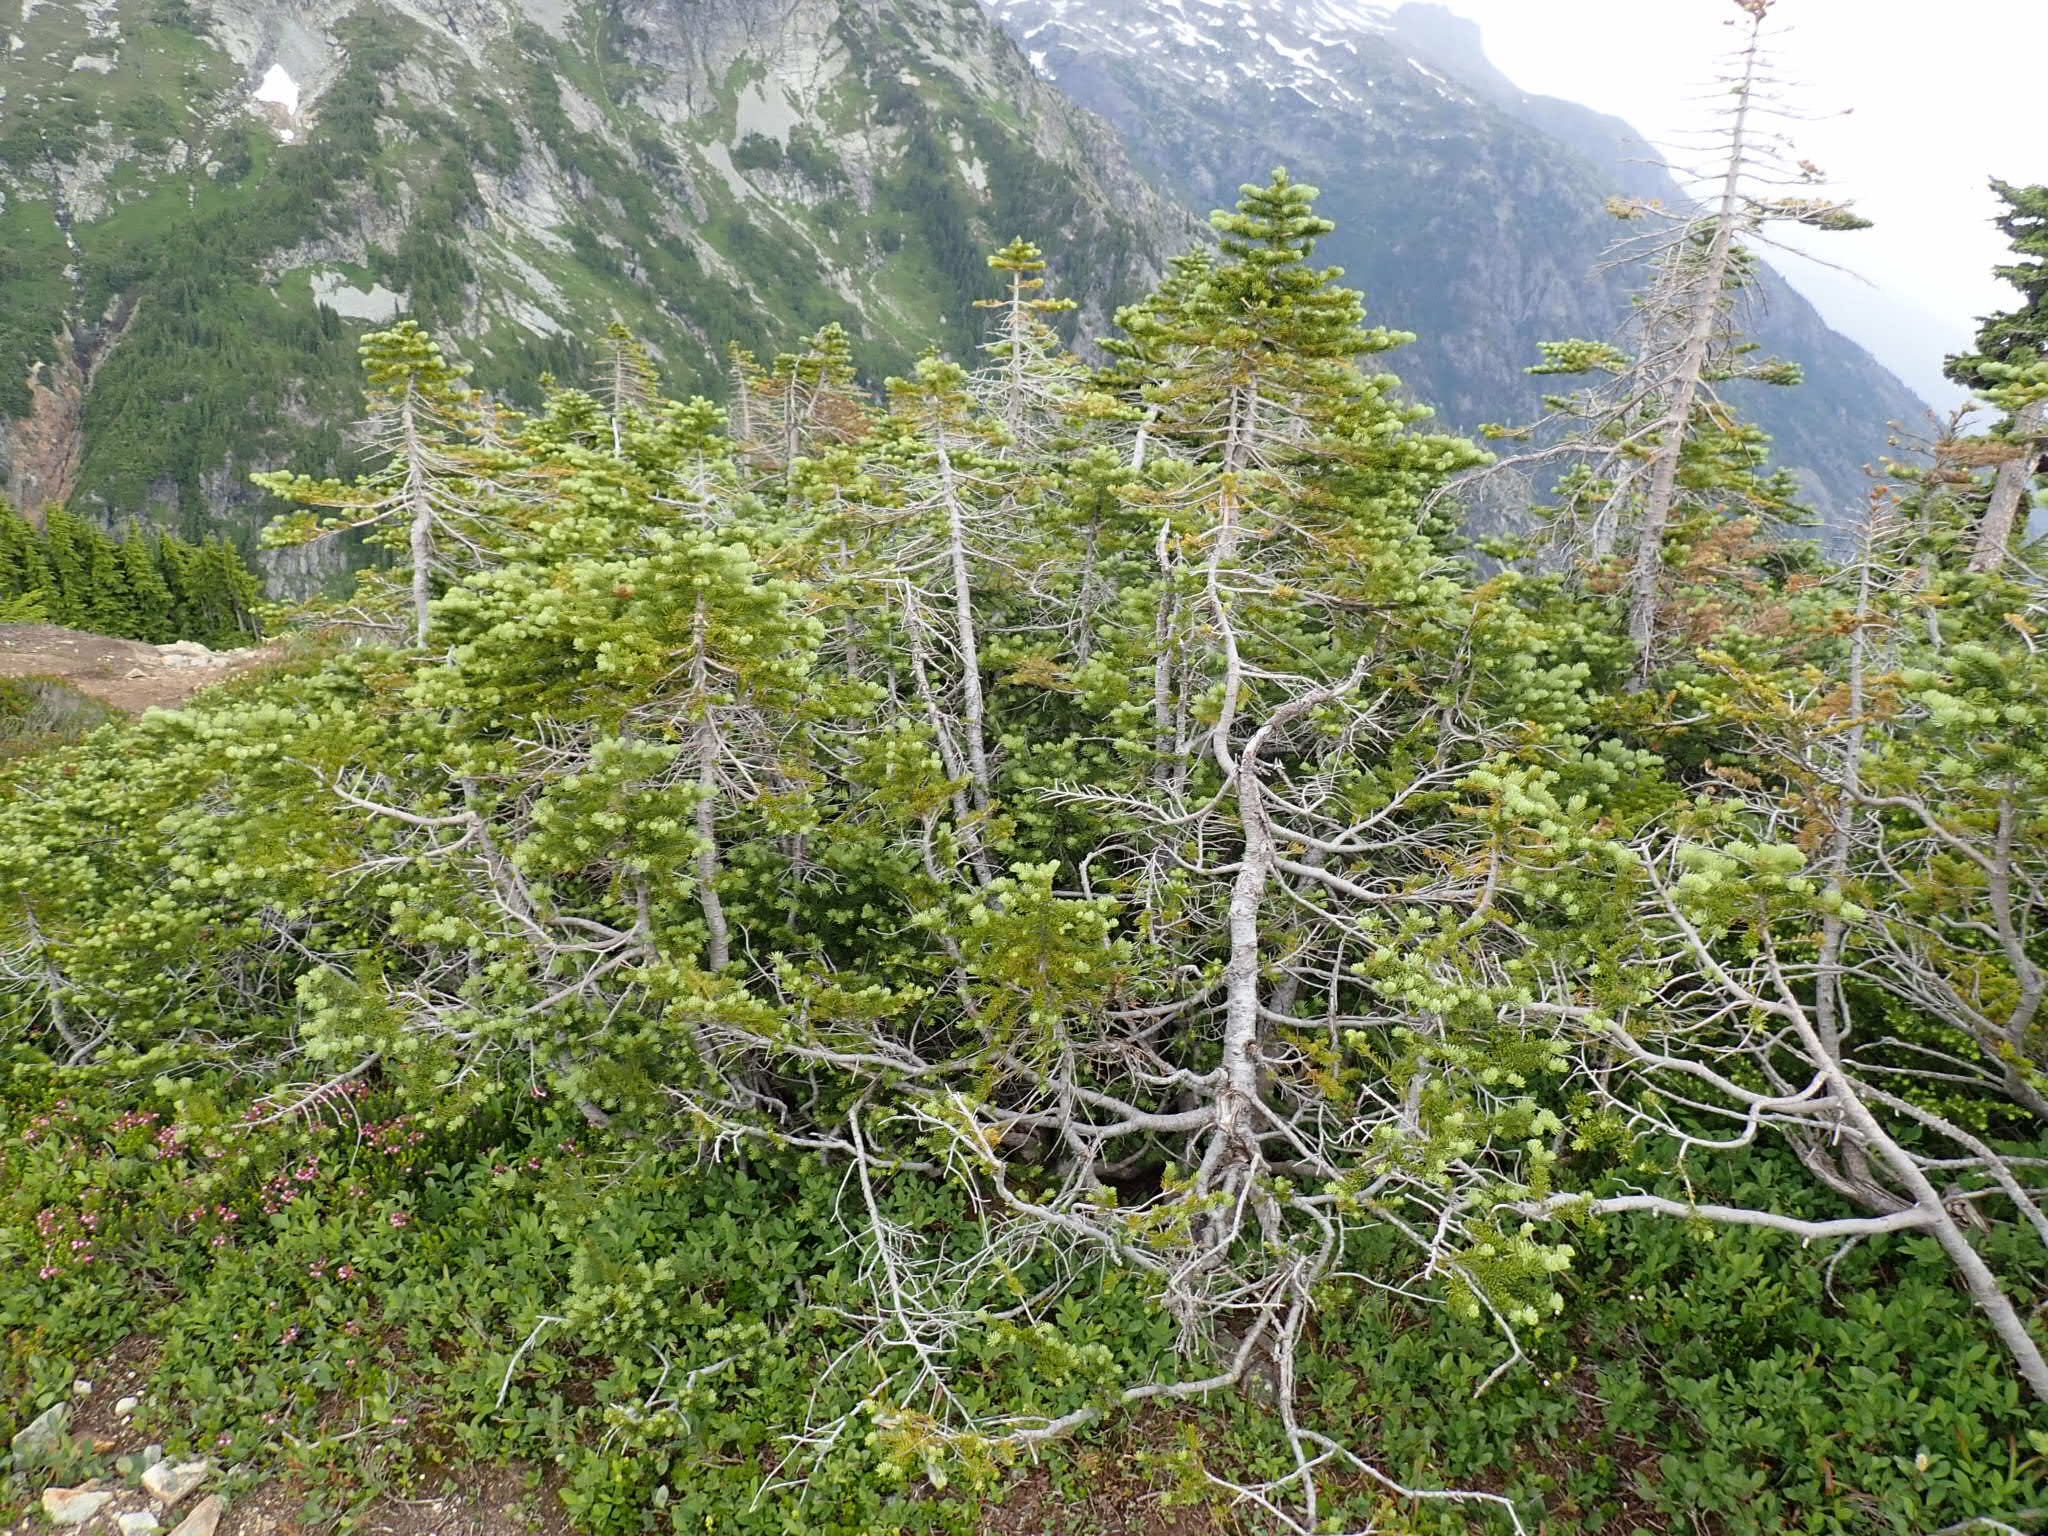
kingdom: Plantae
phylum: Tracheophyta
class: Pinopsida
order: Pinales
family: Pinaceae
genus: Abies
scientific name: Abies lasiocarpa
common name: Subalpine fir
